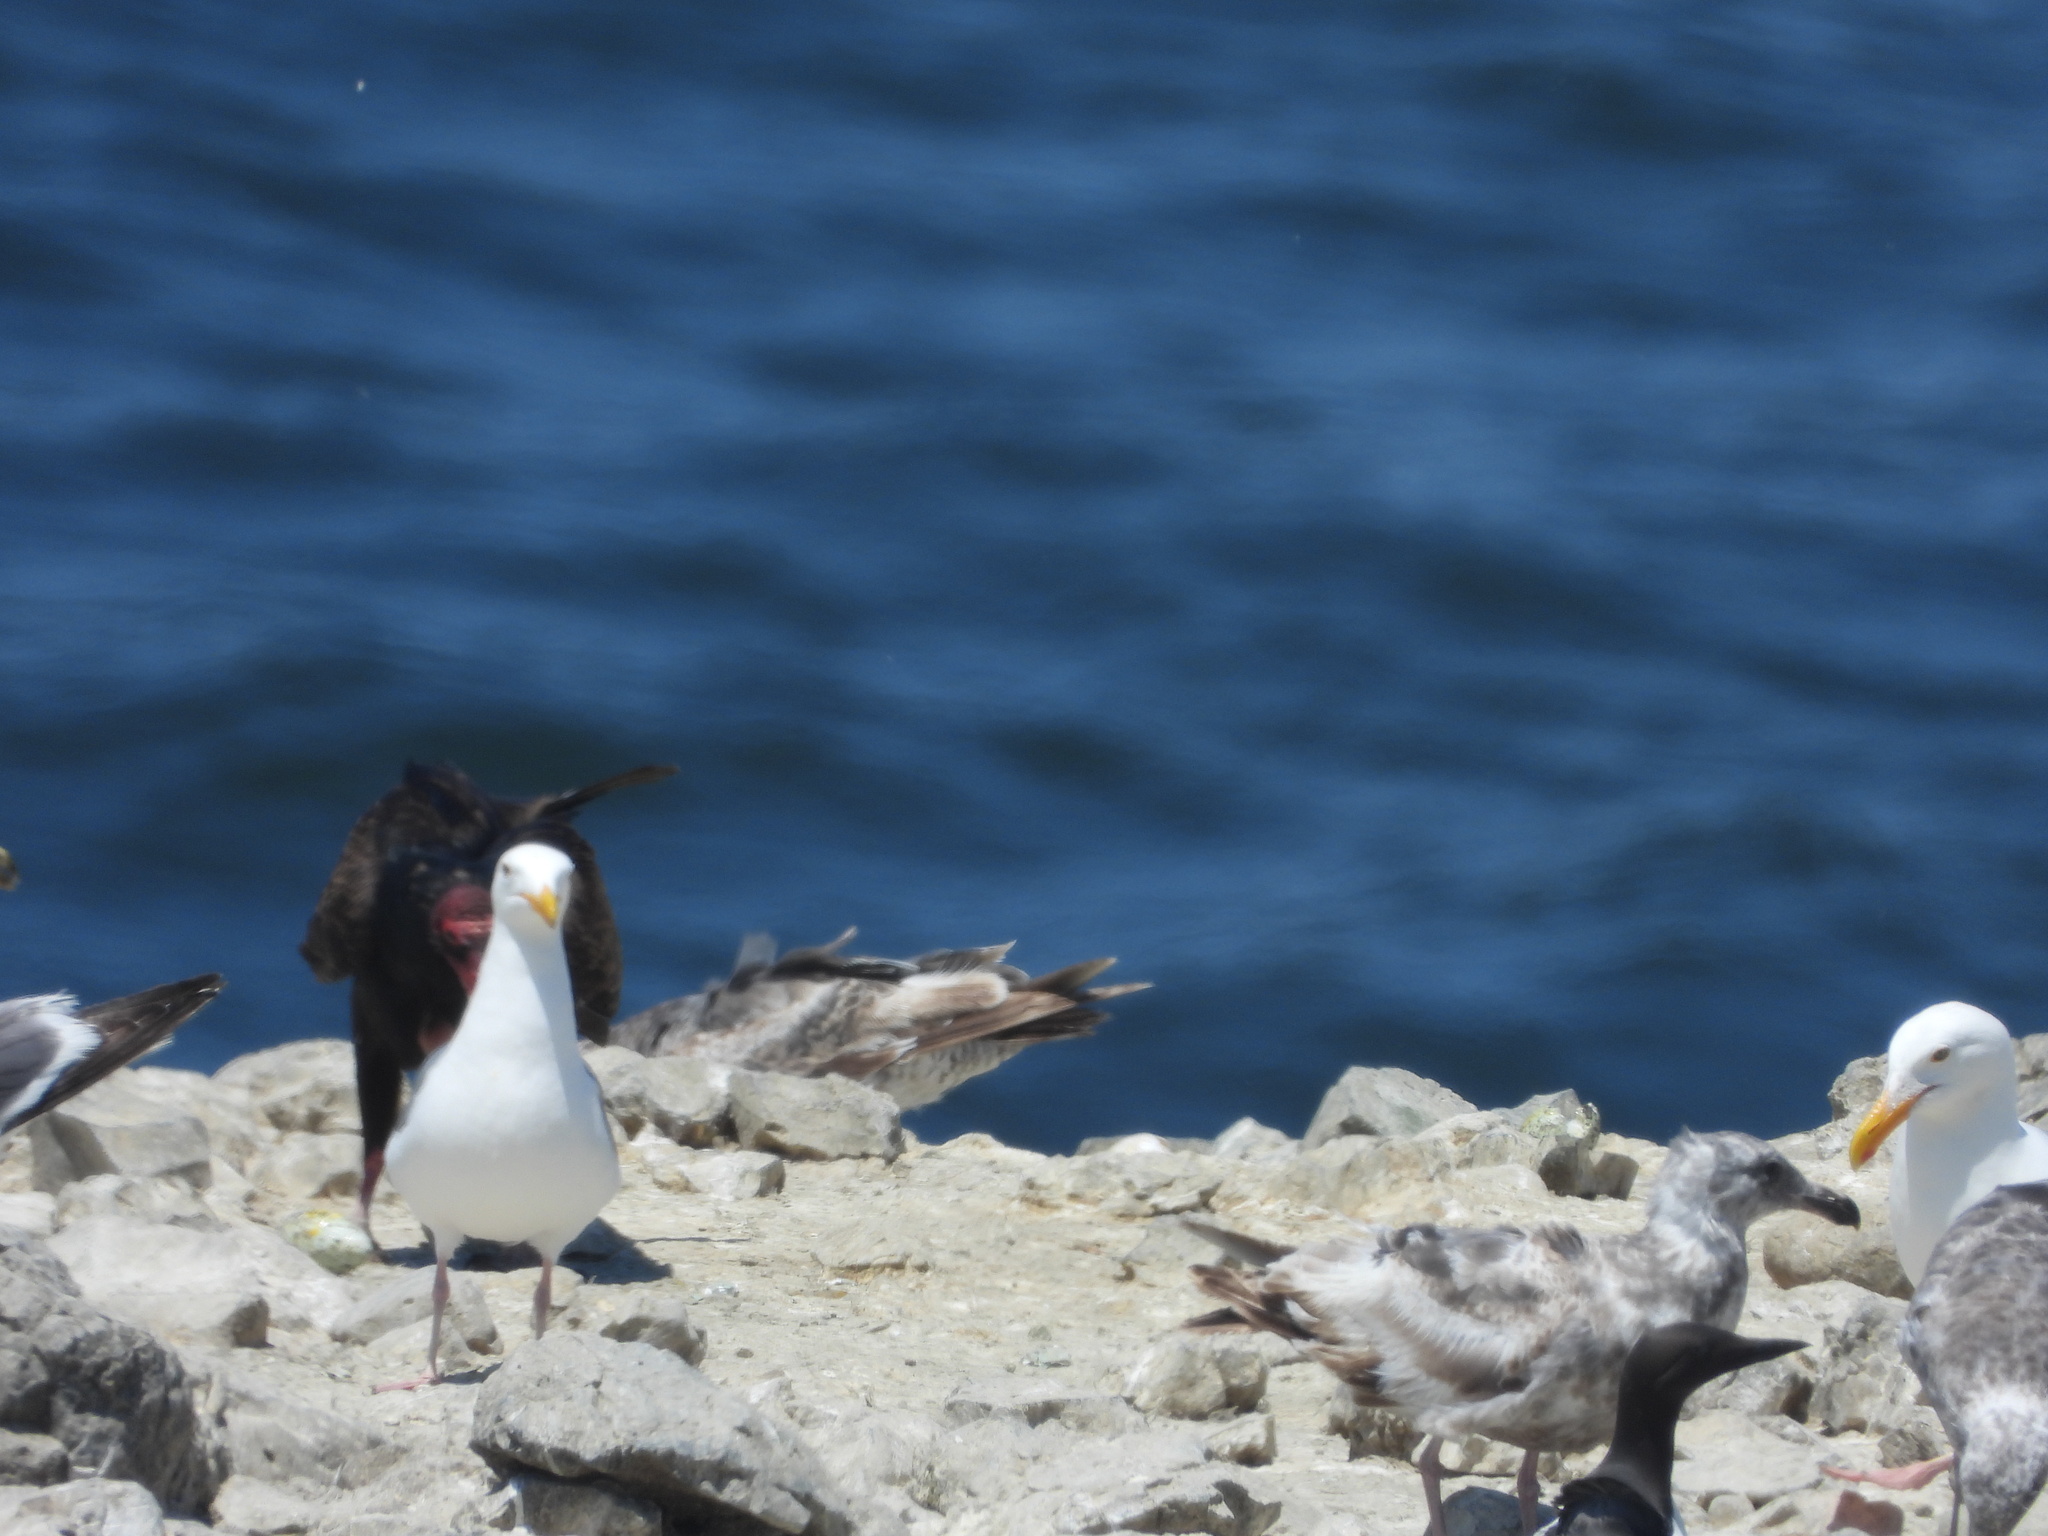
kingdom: Animalia
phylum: Chordata
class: Aves
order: Accipitriformes
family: Cathartidae
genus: Cathartes
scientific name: Cathartes aura
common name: Turkey vulture
